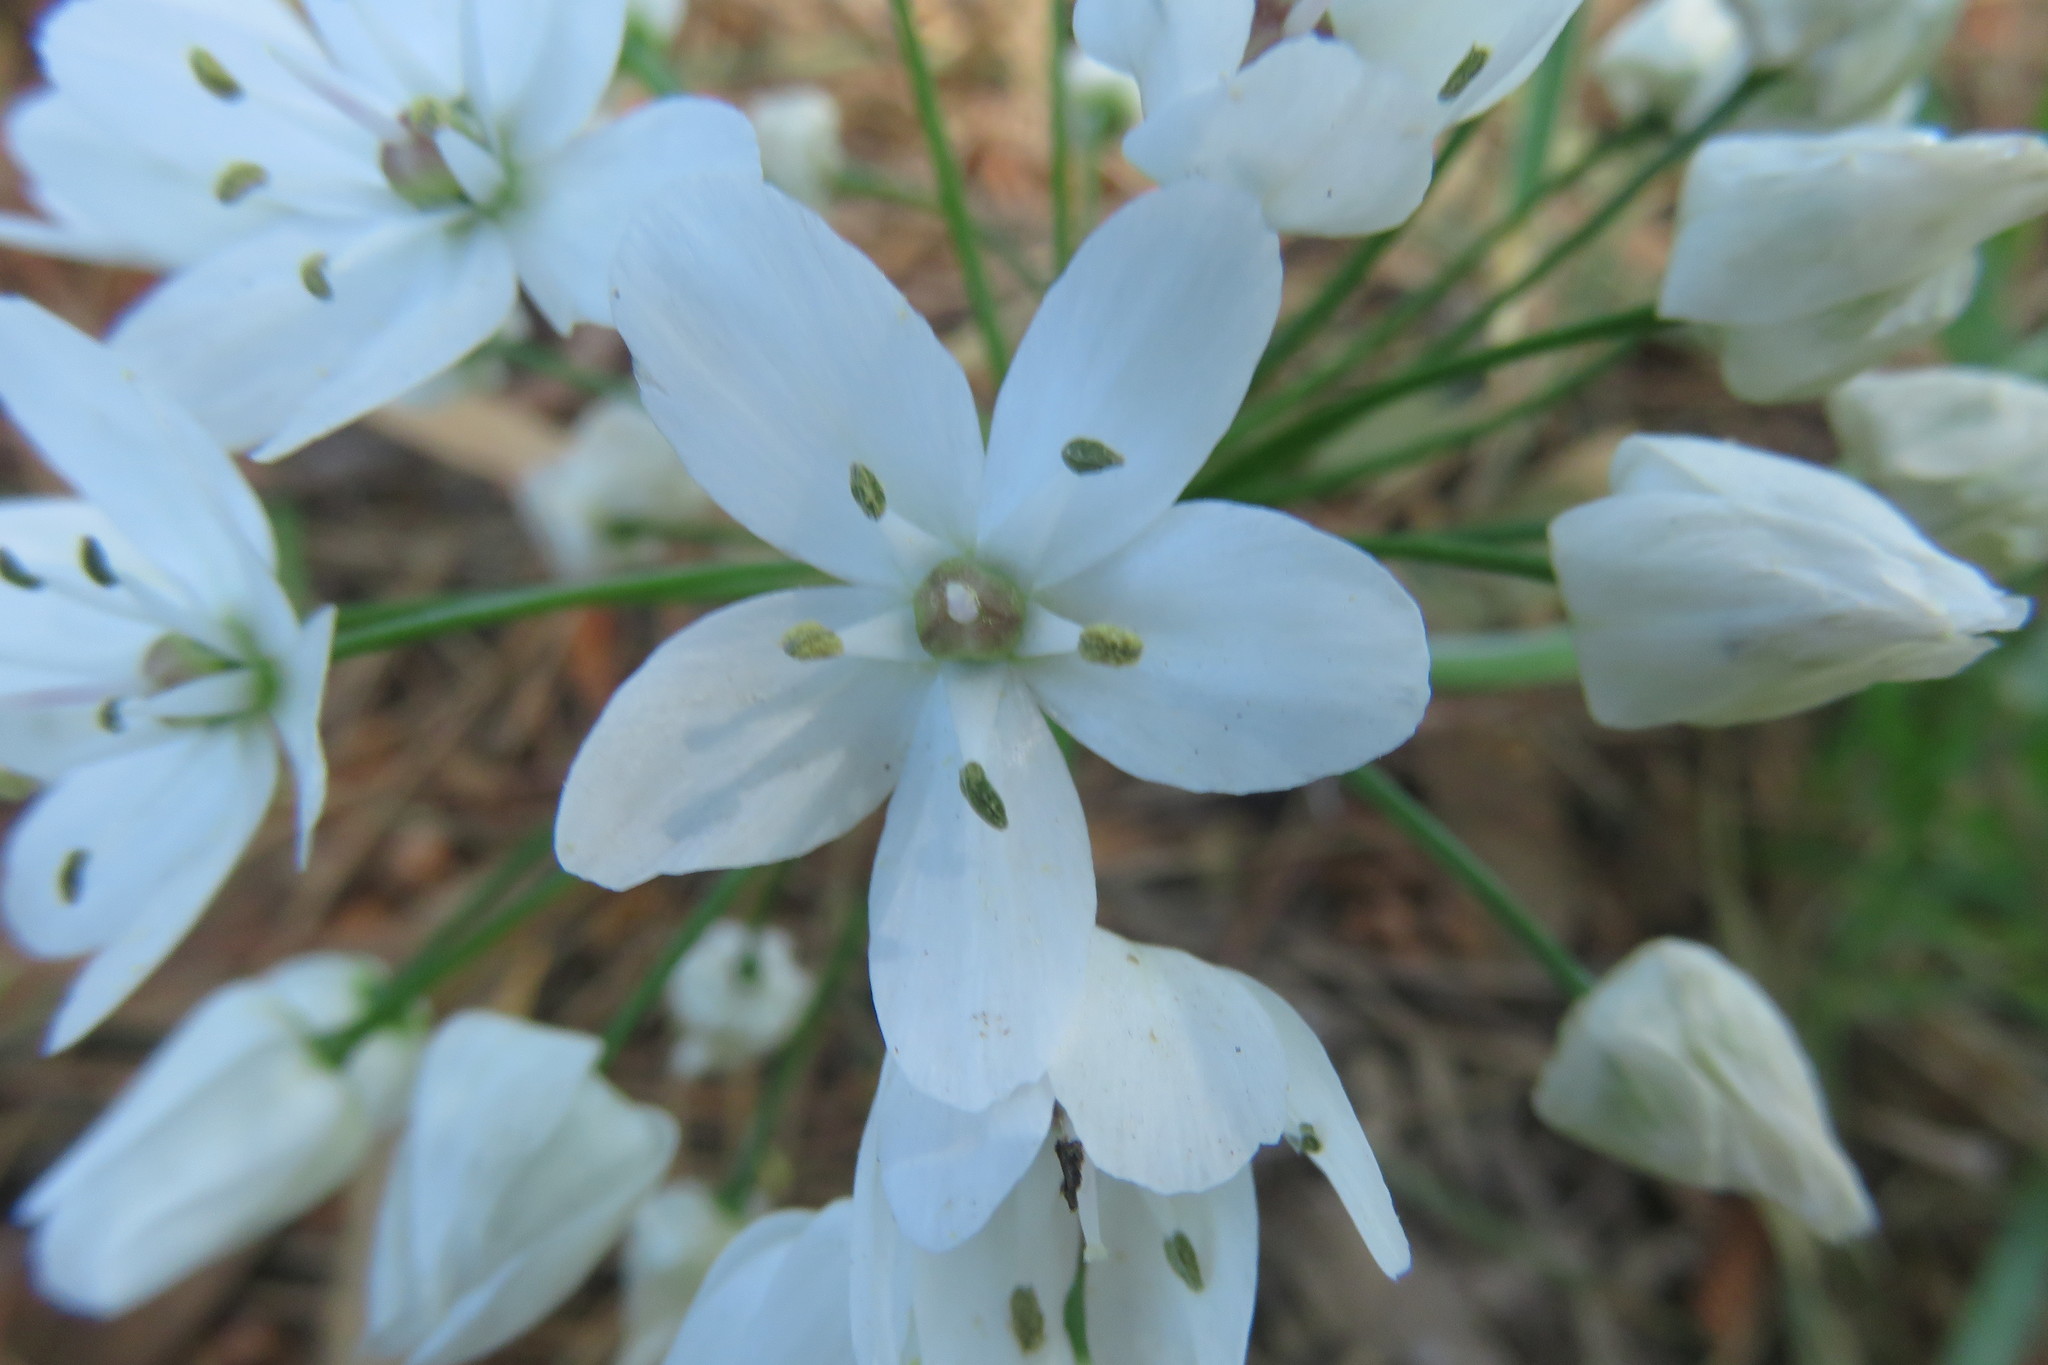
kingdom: Plantae
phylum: Tracheophyta
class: Liliopsida
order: Asparagales
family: Amaryllidaceae
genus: Allium
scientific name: Allium neapolitanum
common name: Neapolitan garlic
